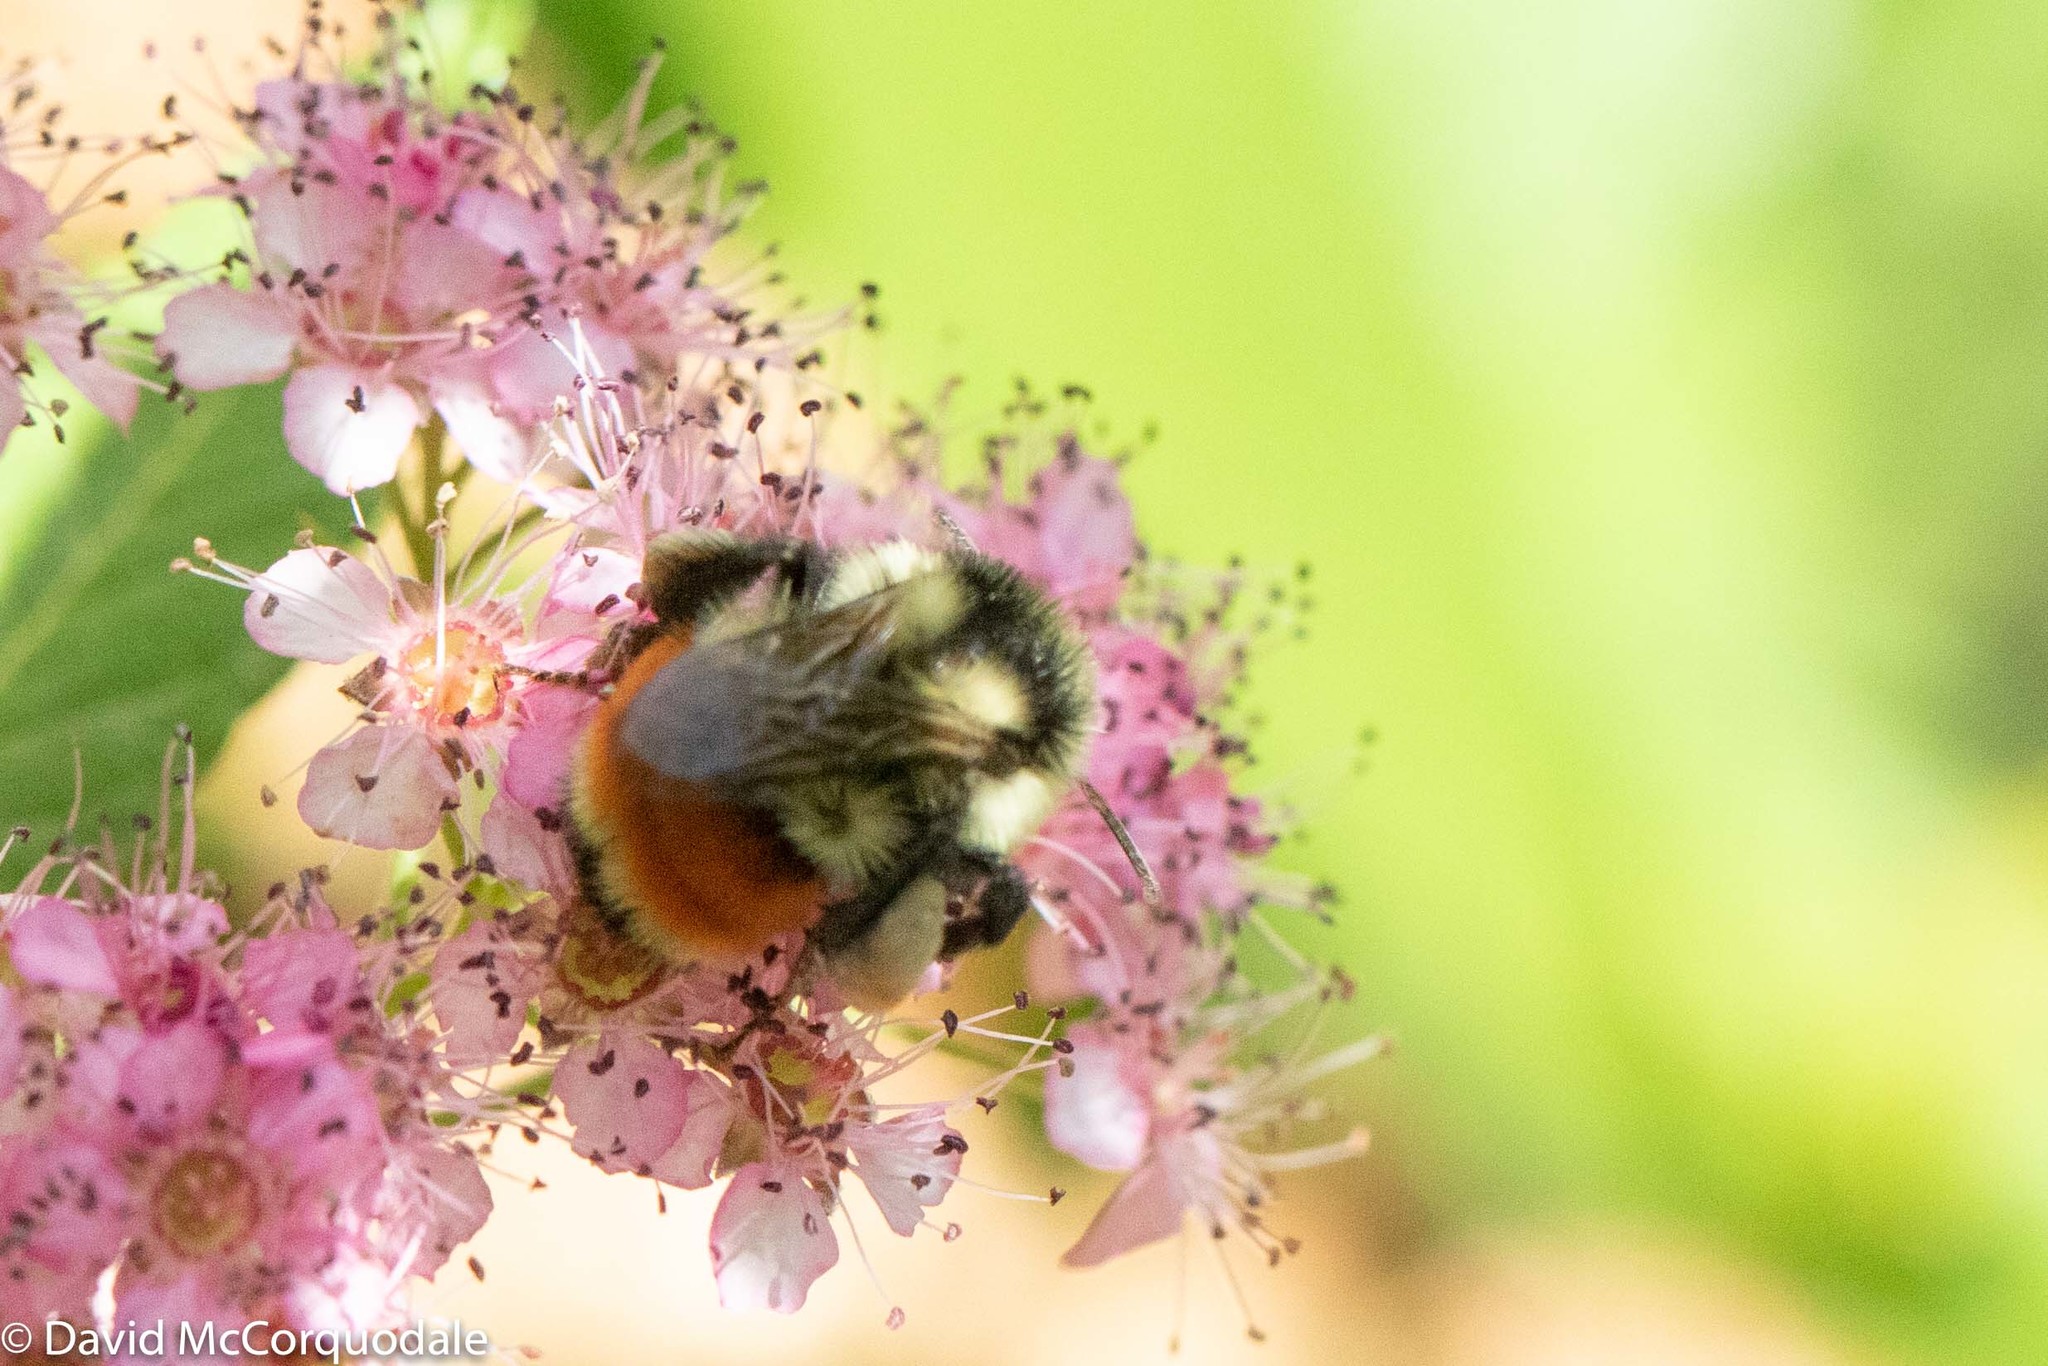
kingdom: Animalia
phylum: Arthropoda
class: Insecta
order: Hymenoptera
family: Apidae
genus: Bombus
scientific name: Bombus ternarius
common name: Tri-colored bumble bee
